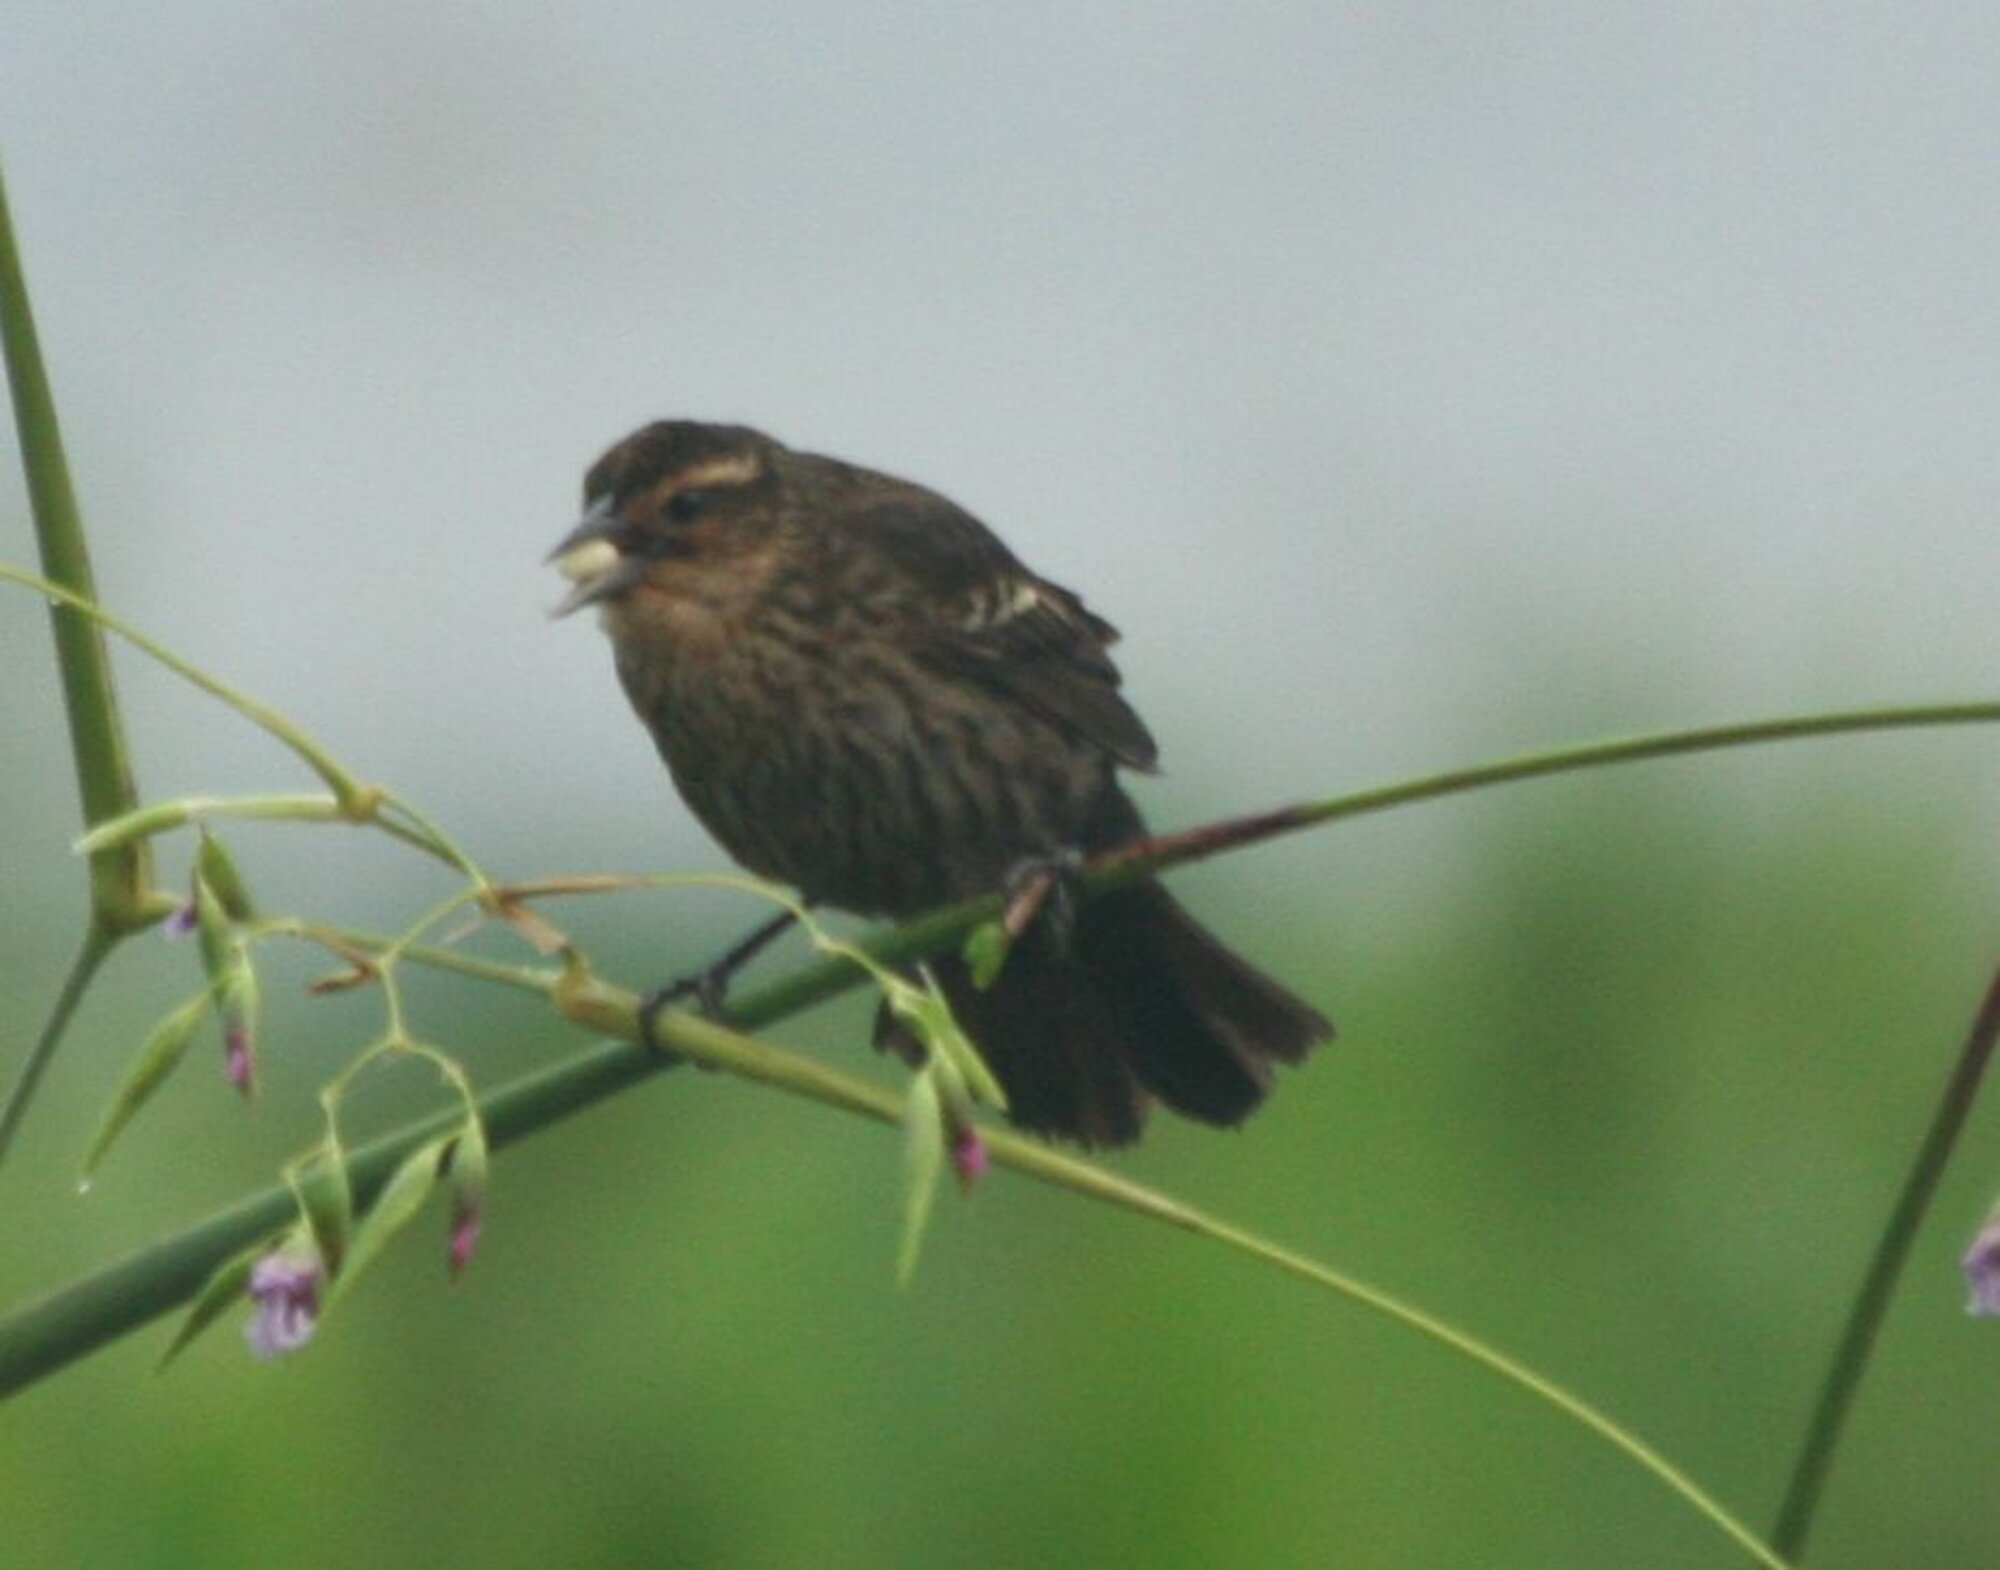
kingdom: Animalia
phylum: Chordata
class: Aves
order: Passeriformes
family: Icteridae
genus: Agelaius
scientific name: Agelaius phoeniceus
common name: Red-winged blackbird
